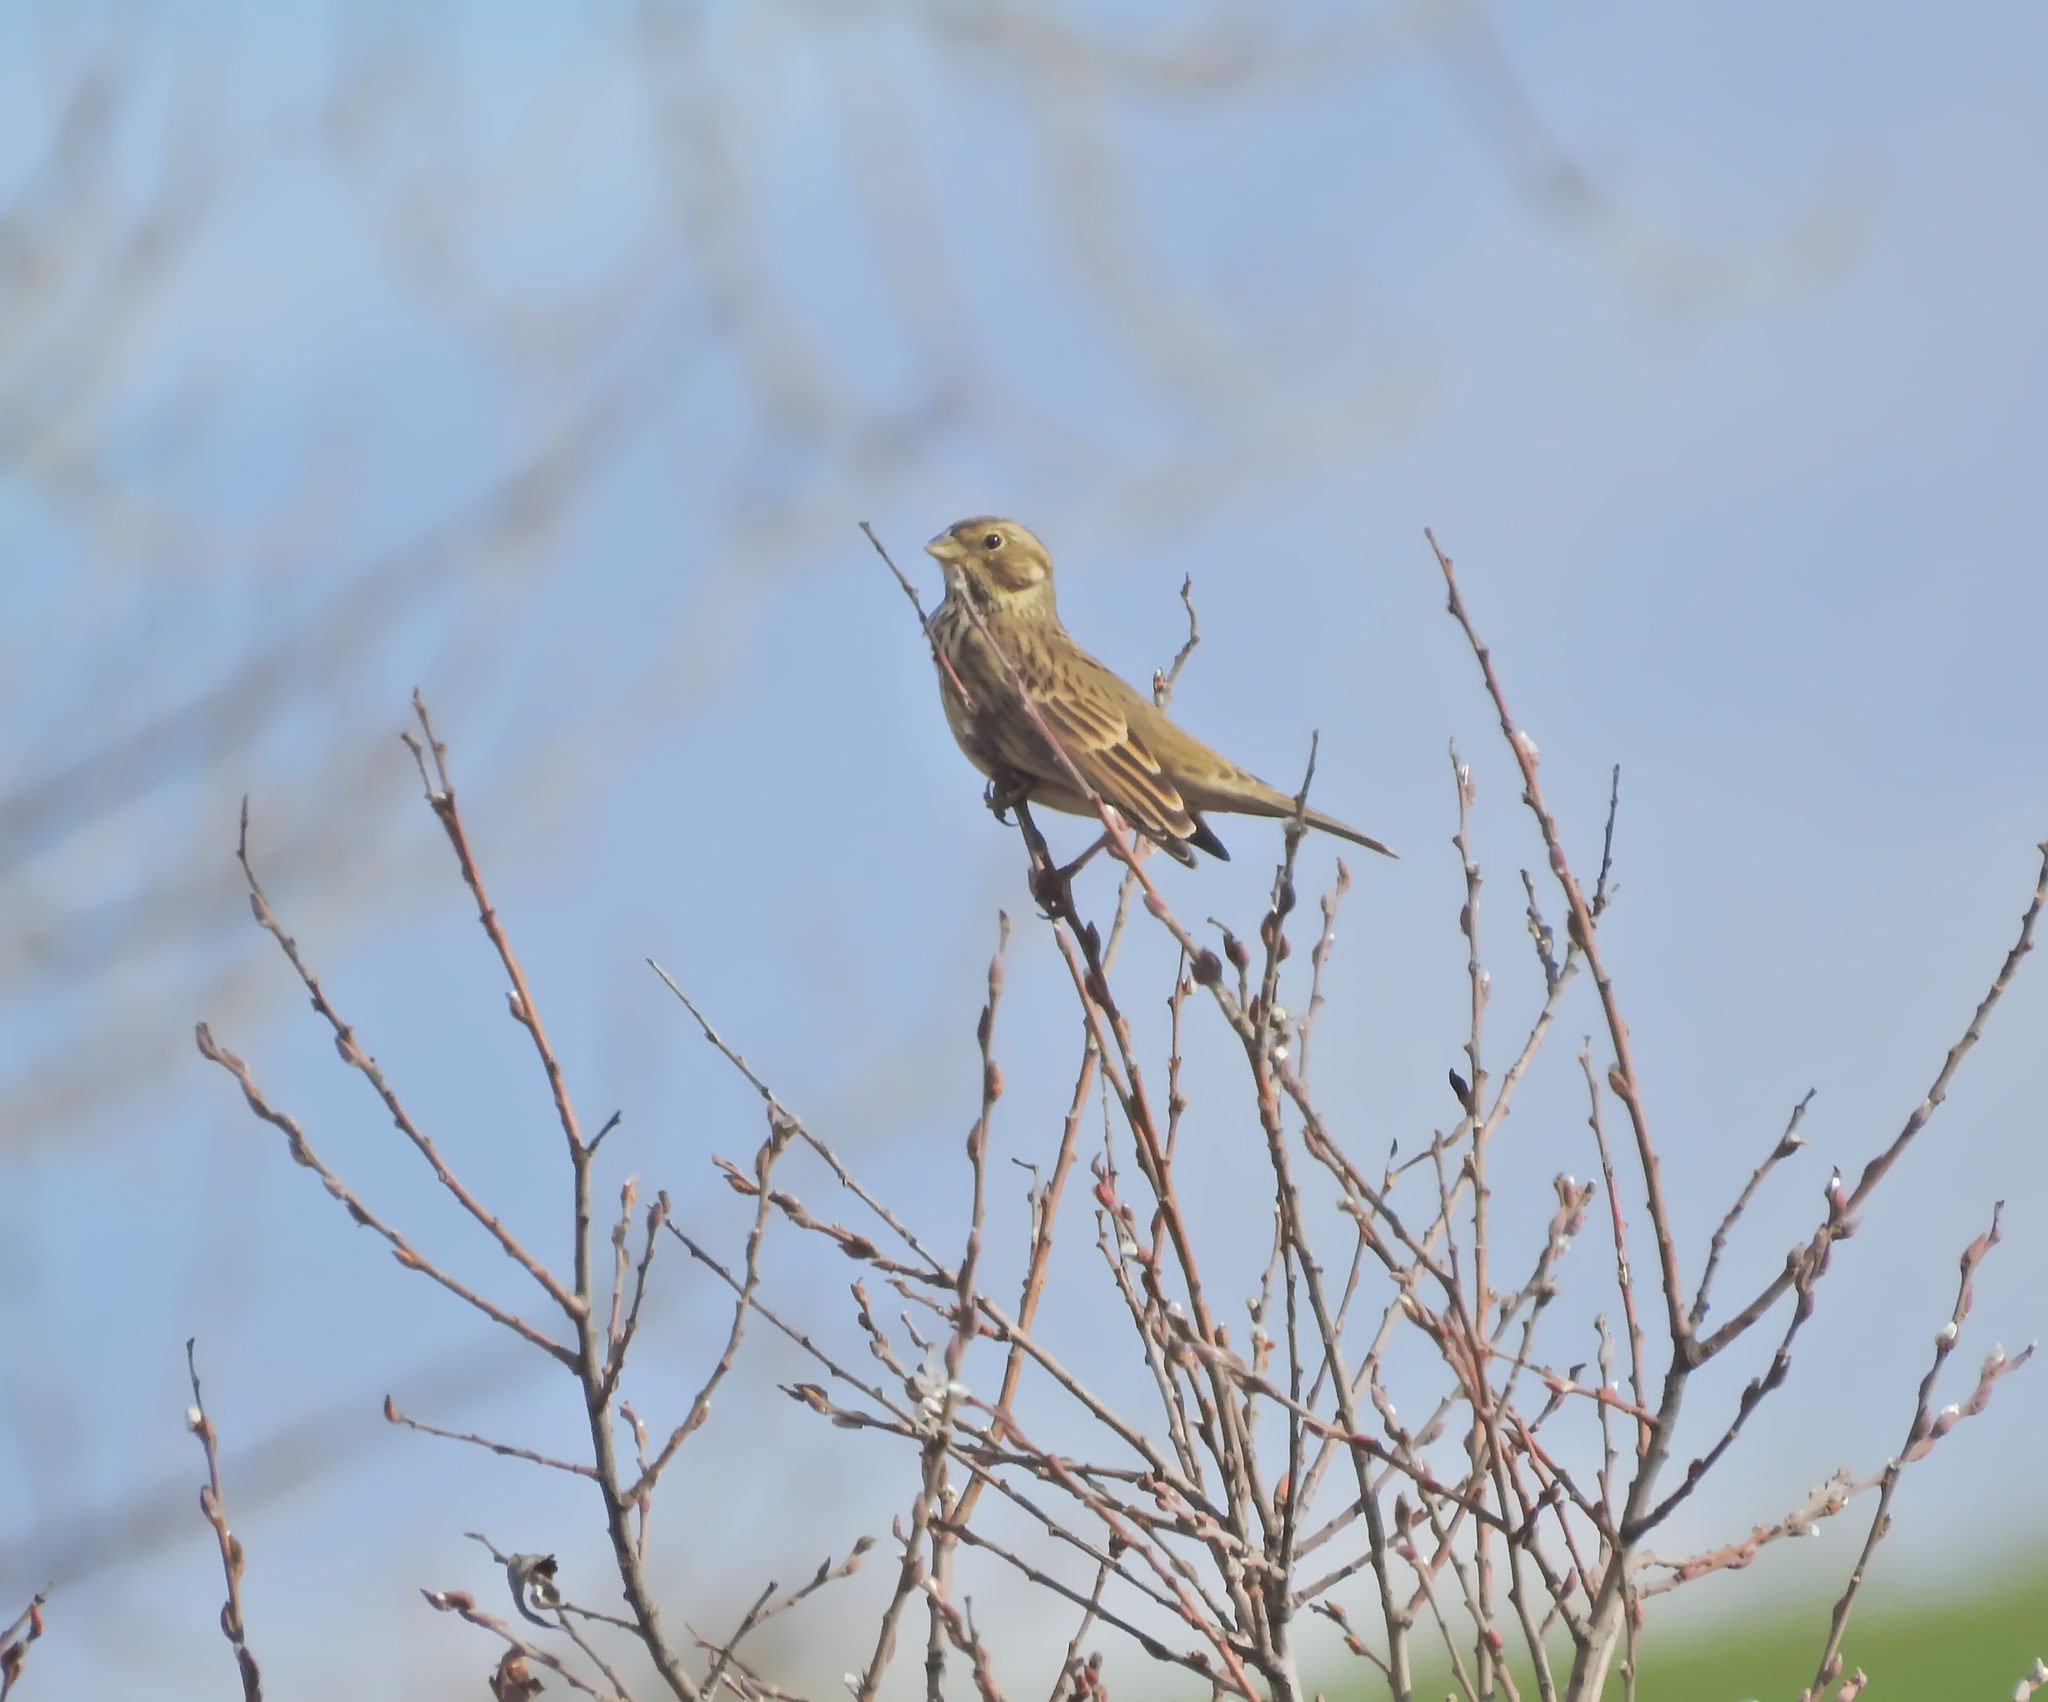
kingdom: Animalia
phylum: Chordata
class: Aves
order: Passeriformes
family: Emberizidae
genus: Emberiza
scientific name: Emberiza calandra
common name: Corn bunting
